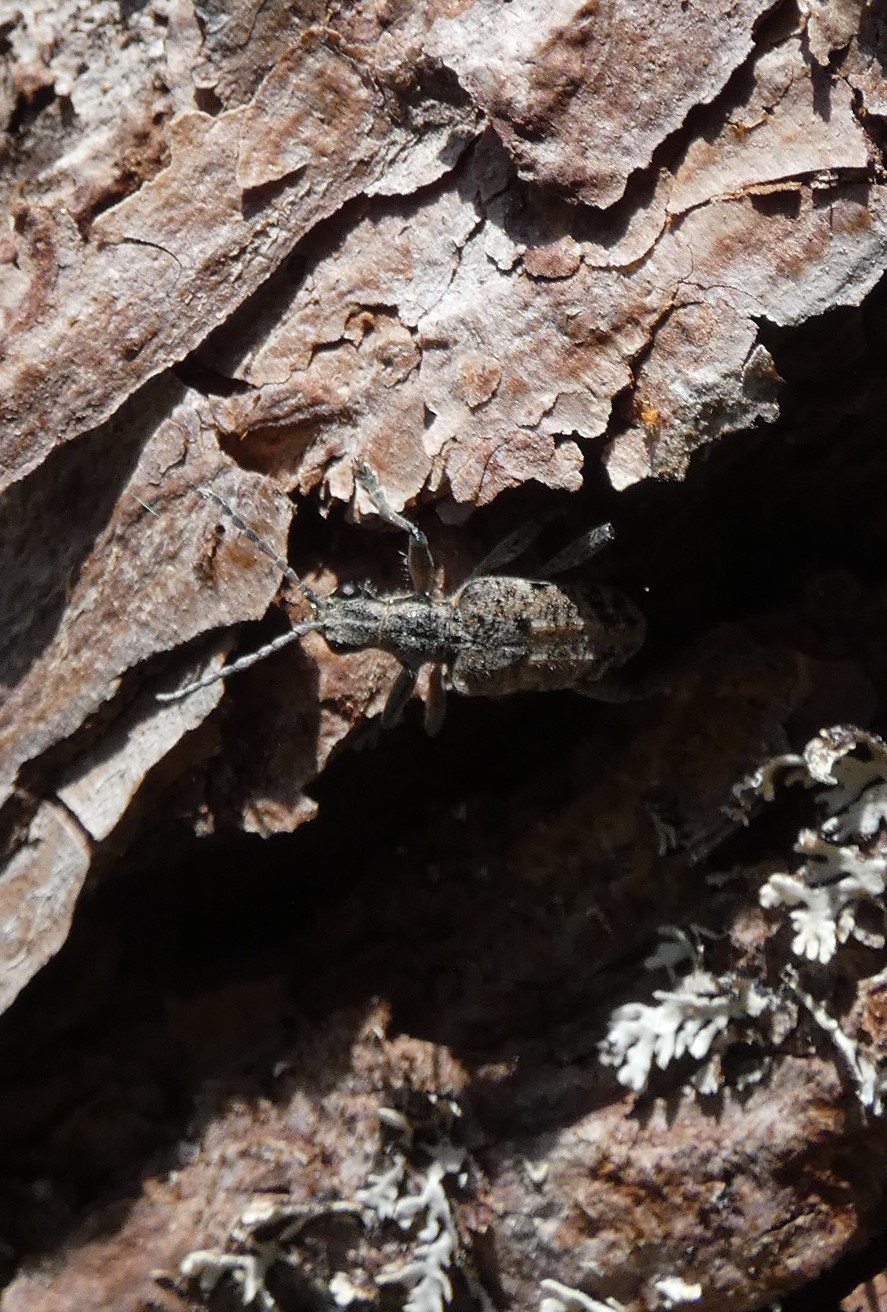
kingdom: Animalia
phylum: Arthropoda
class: Insecta
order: Coleoptera
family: Cerambycidae
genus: Rhagium
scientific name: Rhagium inquisitor
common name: Ribbed pine borer
